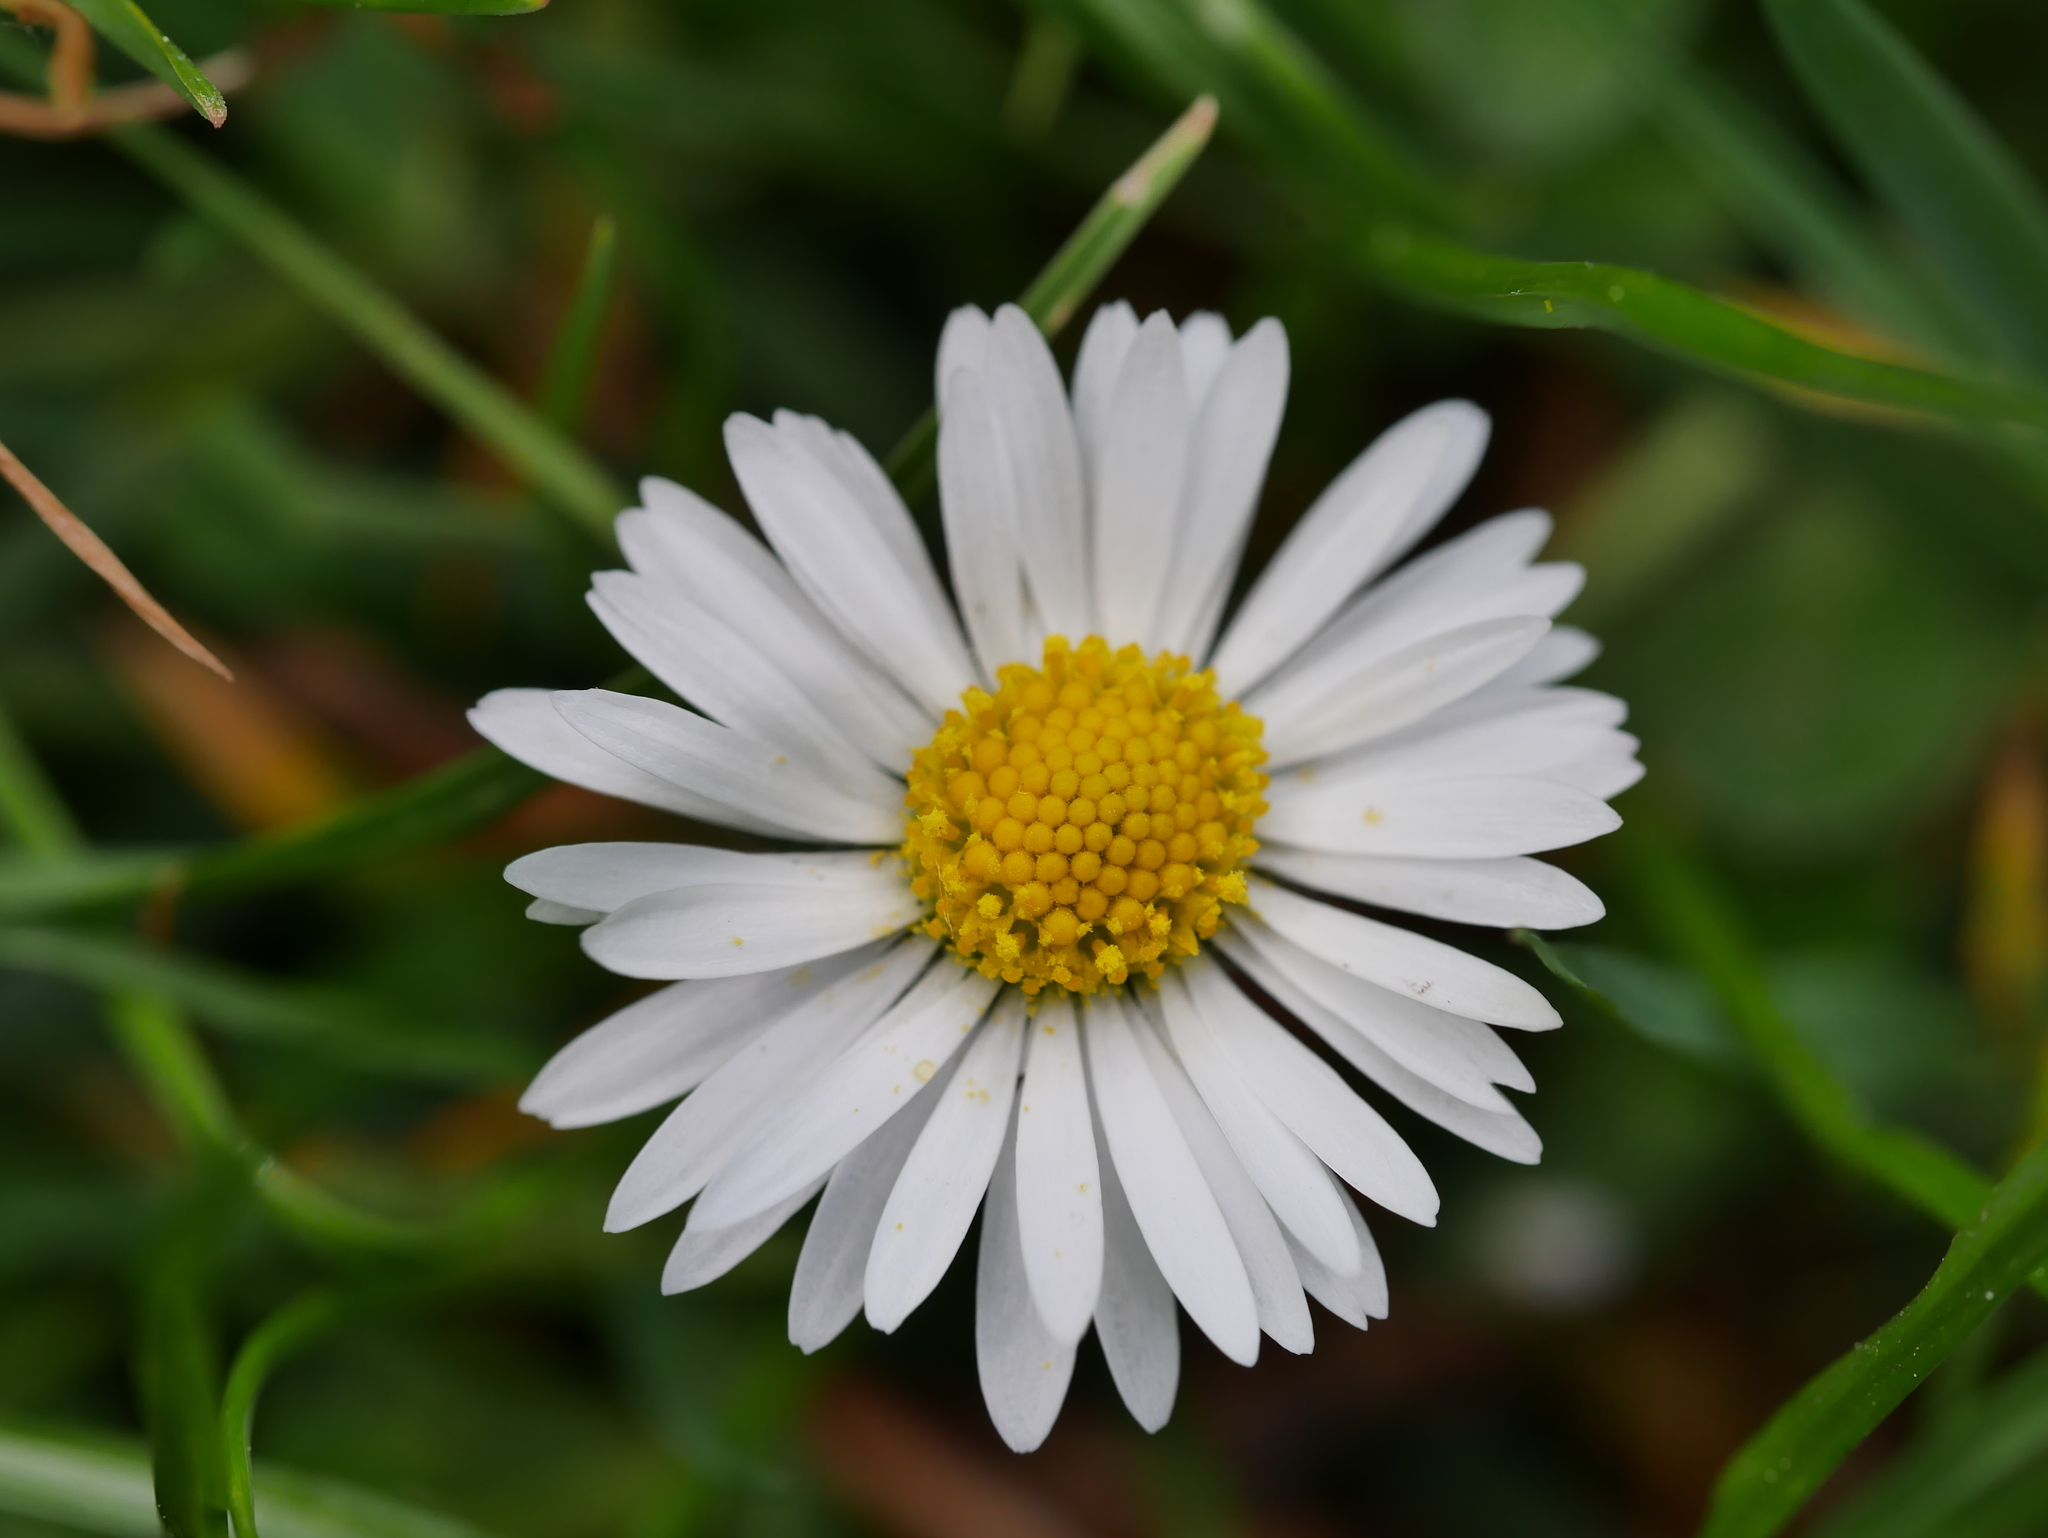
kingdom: Plantae
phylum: Tracheophyta
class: Magnoliopsida
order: Asterales
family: Asteraceae
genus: Bellis
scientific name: Bellis perennis
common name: Lawndaisy
